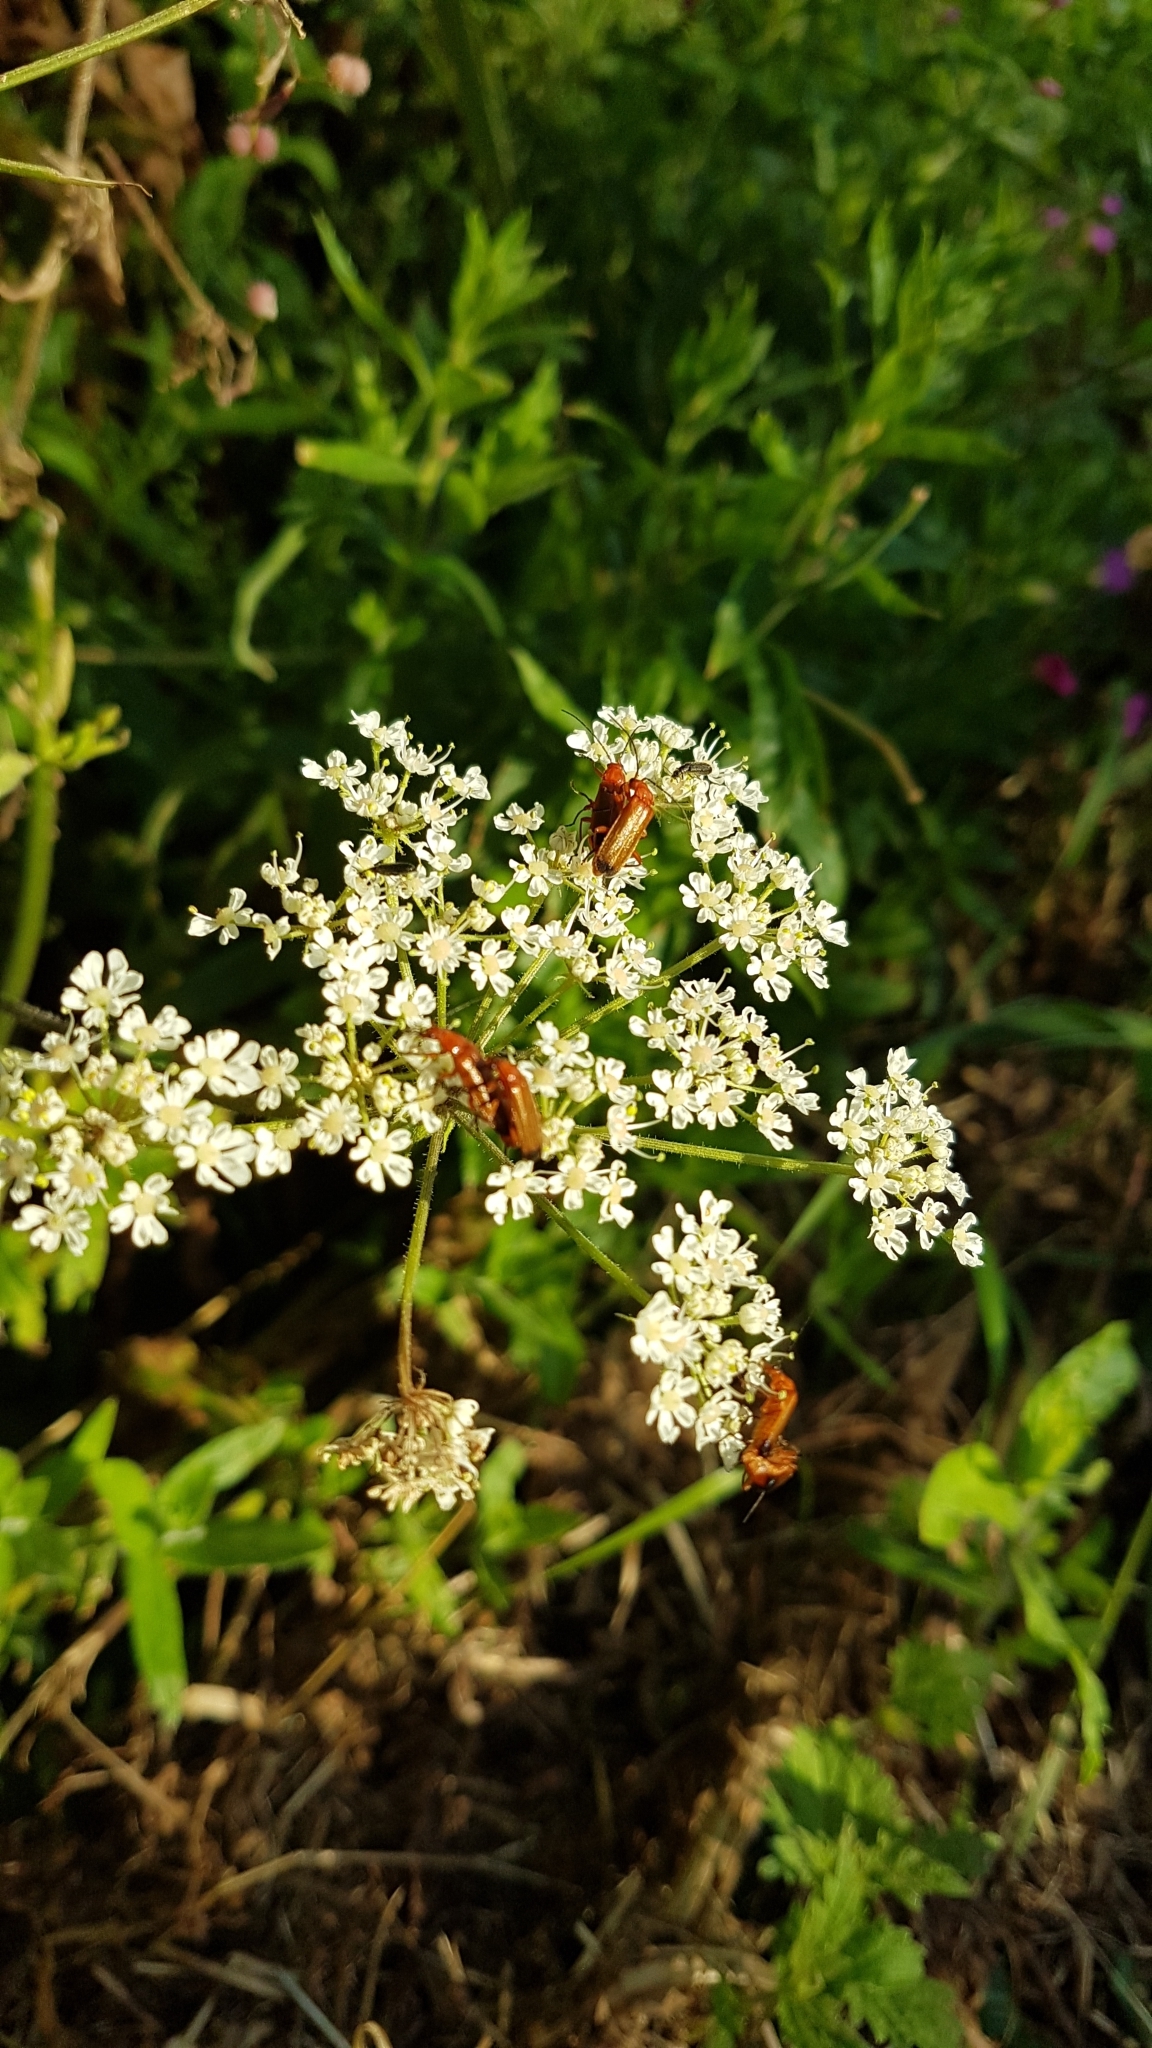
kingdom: Animalia
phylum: Arthropoda
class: Insecta
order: Coleoptera
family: Cantharidae
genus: Rhagonycha
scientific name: Rhagonycha fulva
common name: Common red soldier beetle
